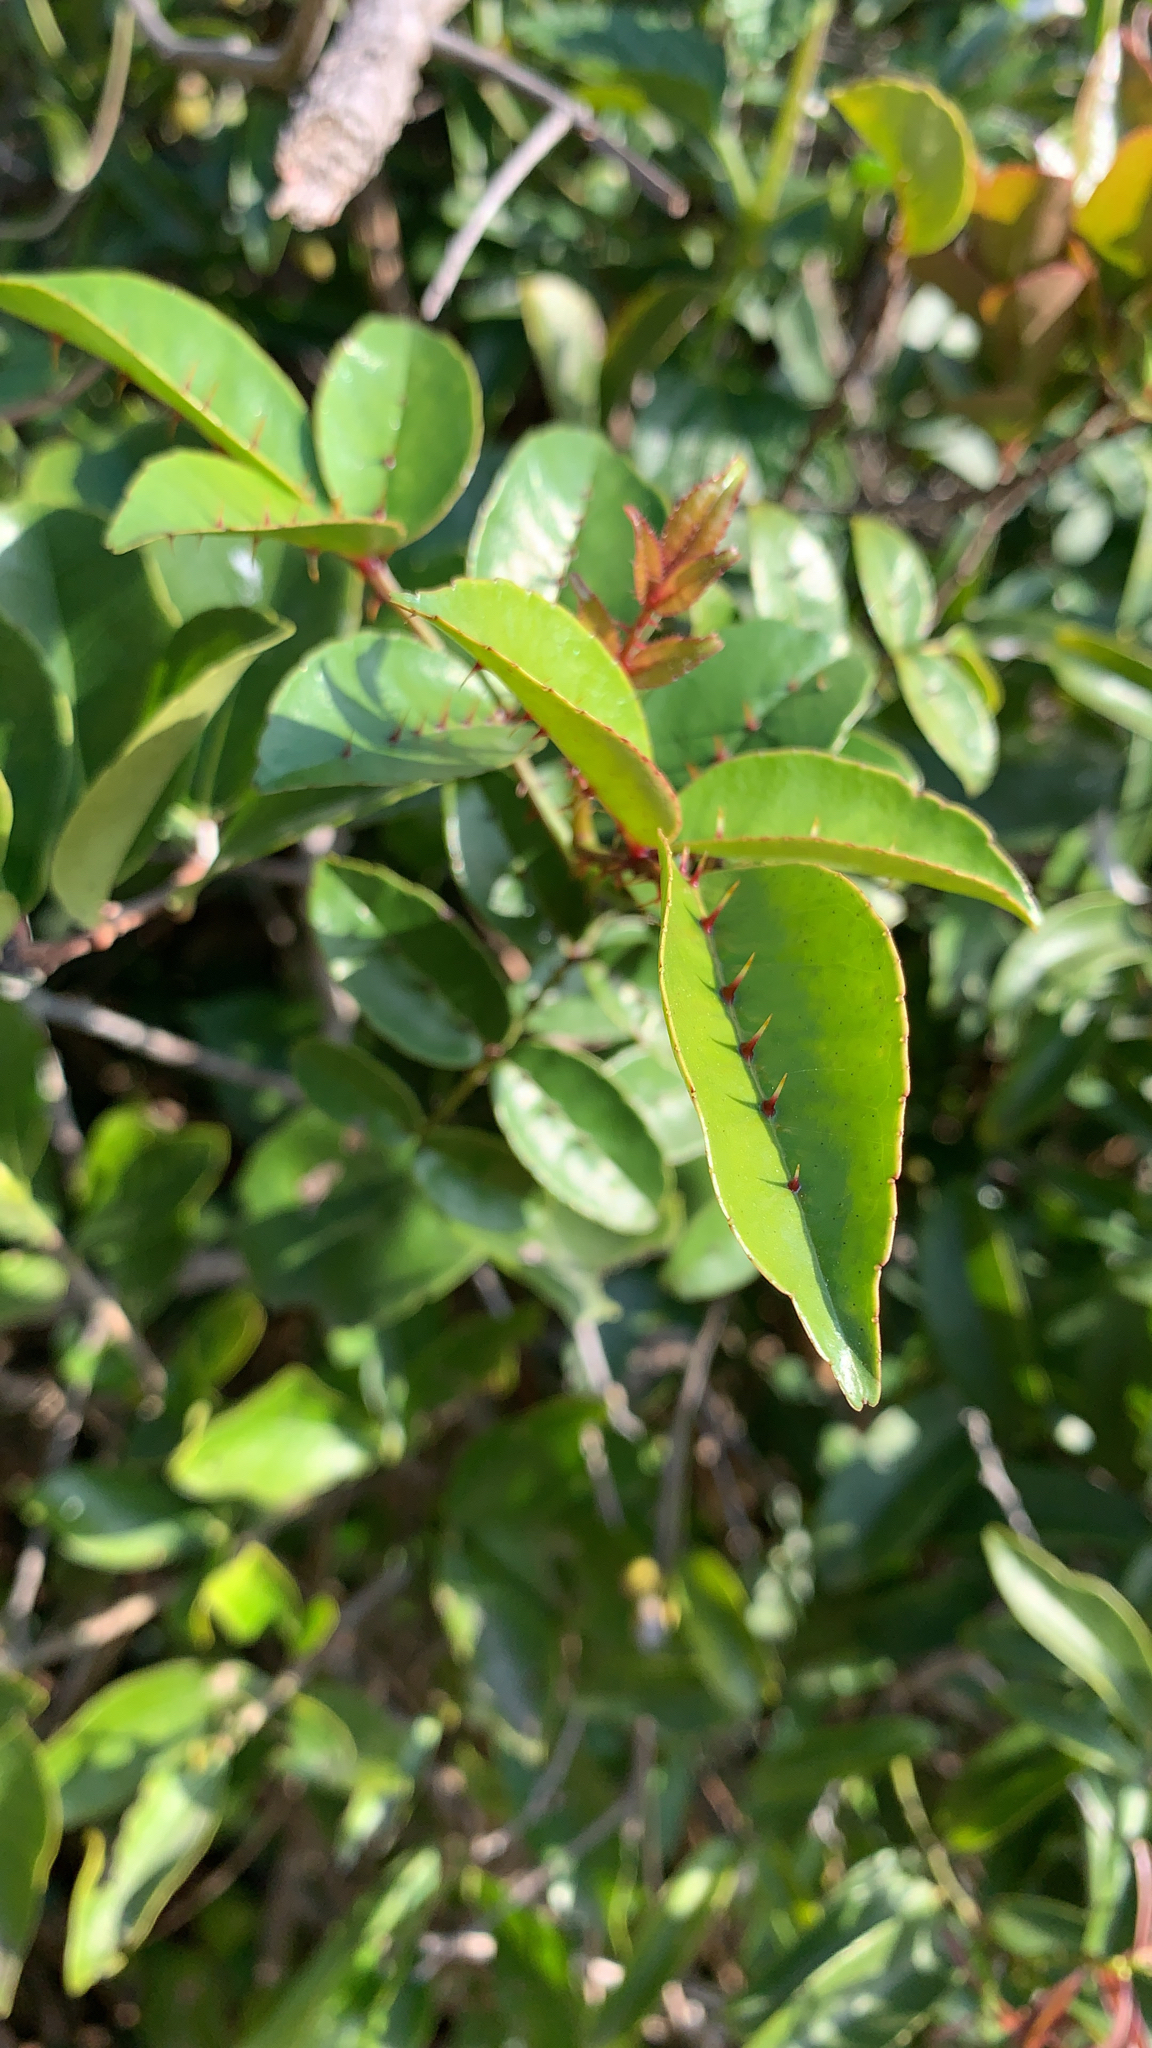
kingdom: Plantae
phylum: Tracheophyta
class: Magnoliopsida
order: Sapindales
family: Rutaceae
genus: Zanthoxylum
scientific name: Zanthoxylum nitidum
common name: Shiny-leaf prickly-ash
